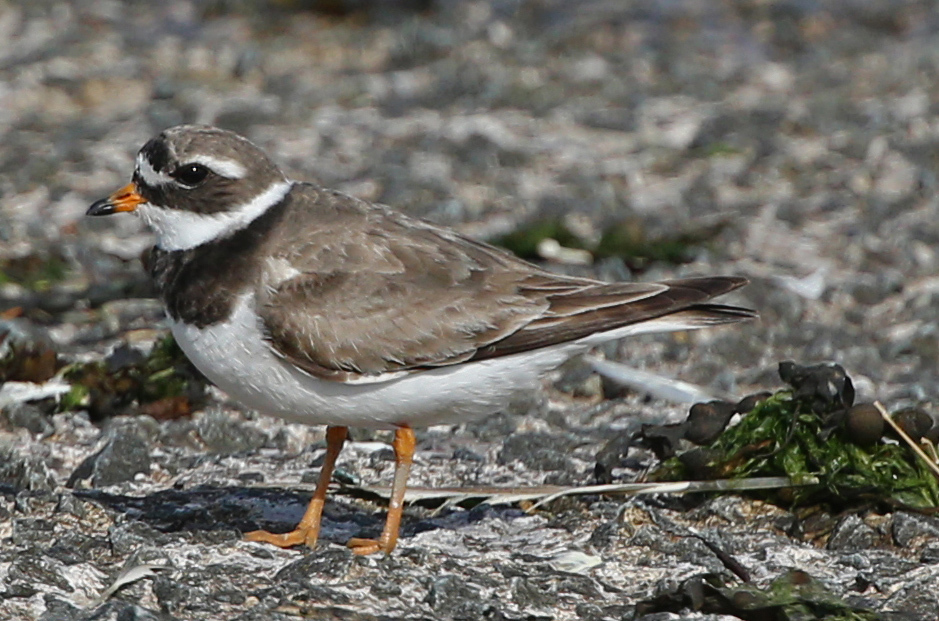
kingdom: Animalia
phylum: Chordata
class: Aves
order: Charadriiformes
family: Charadriidae
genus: Charadrius
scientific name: Charadrius hiaticula
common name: Common ringed plover
